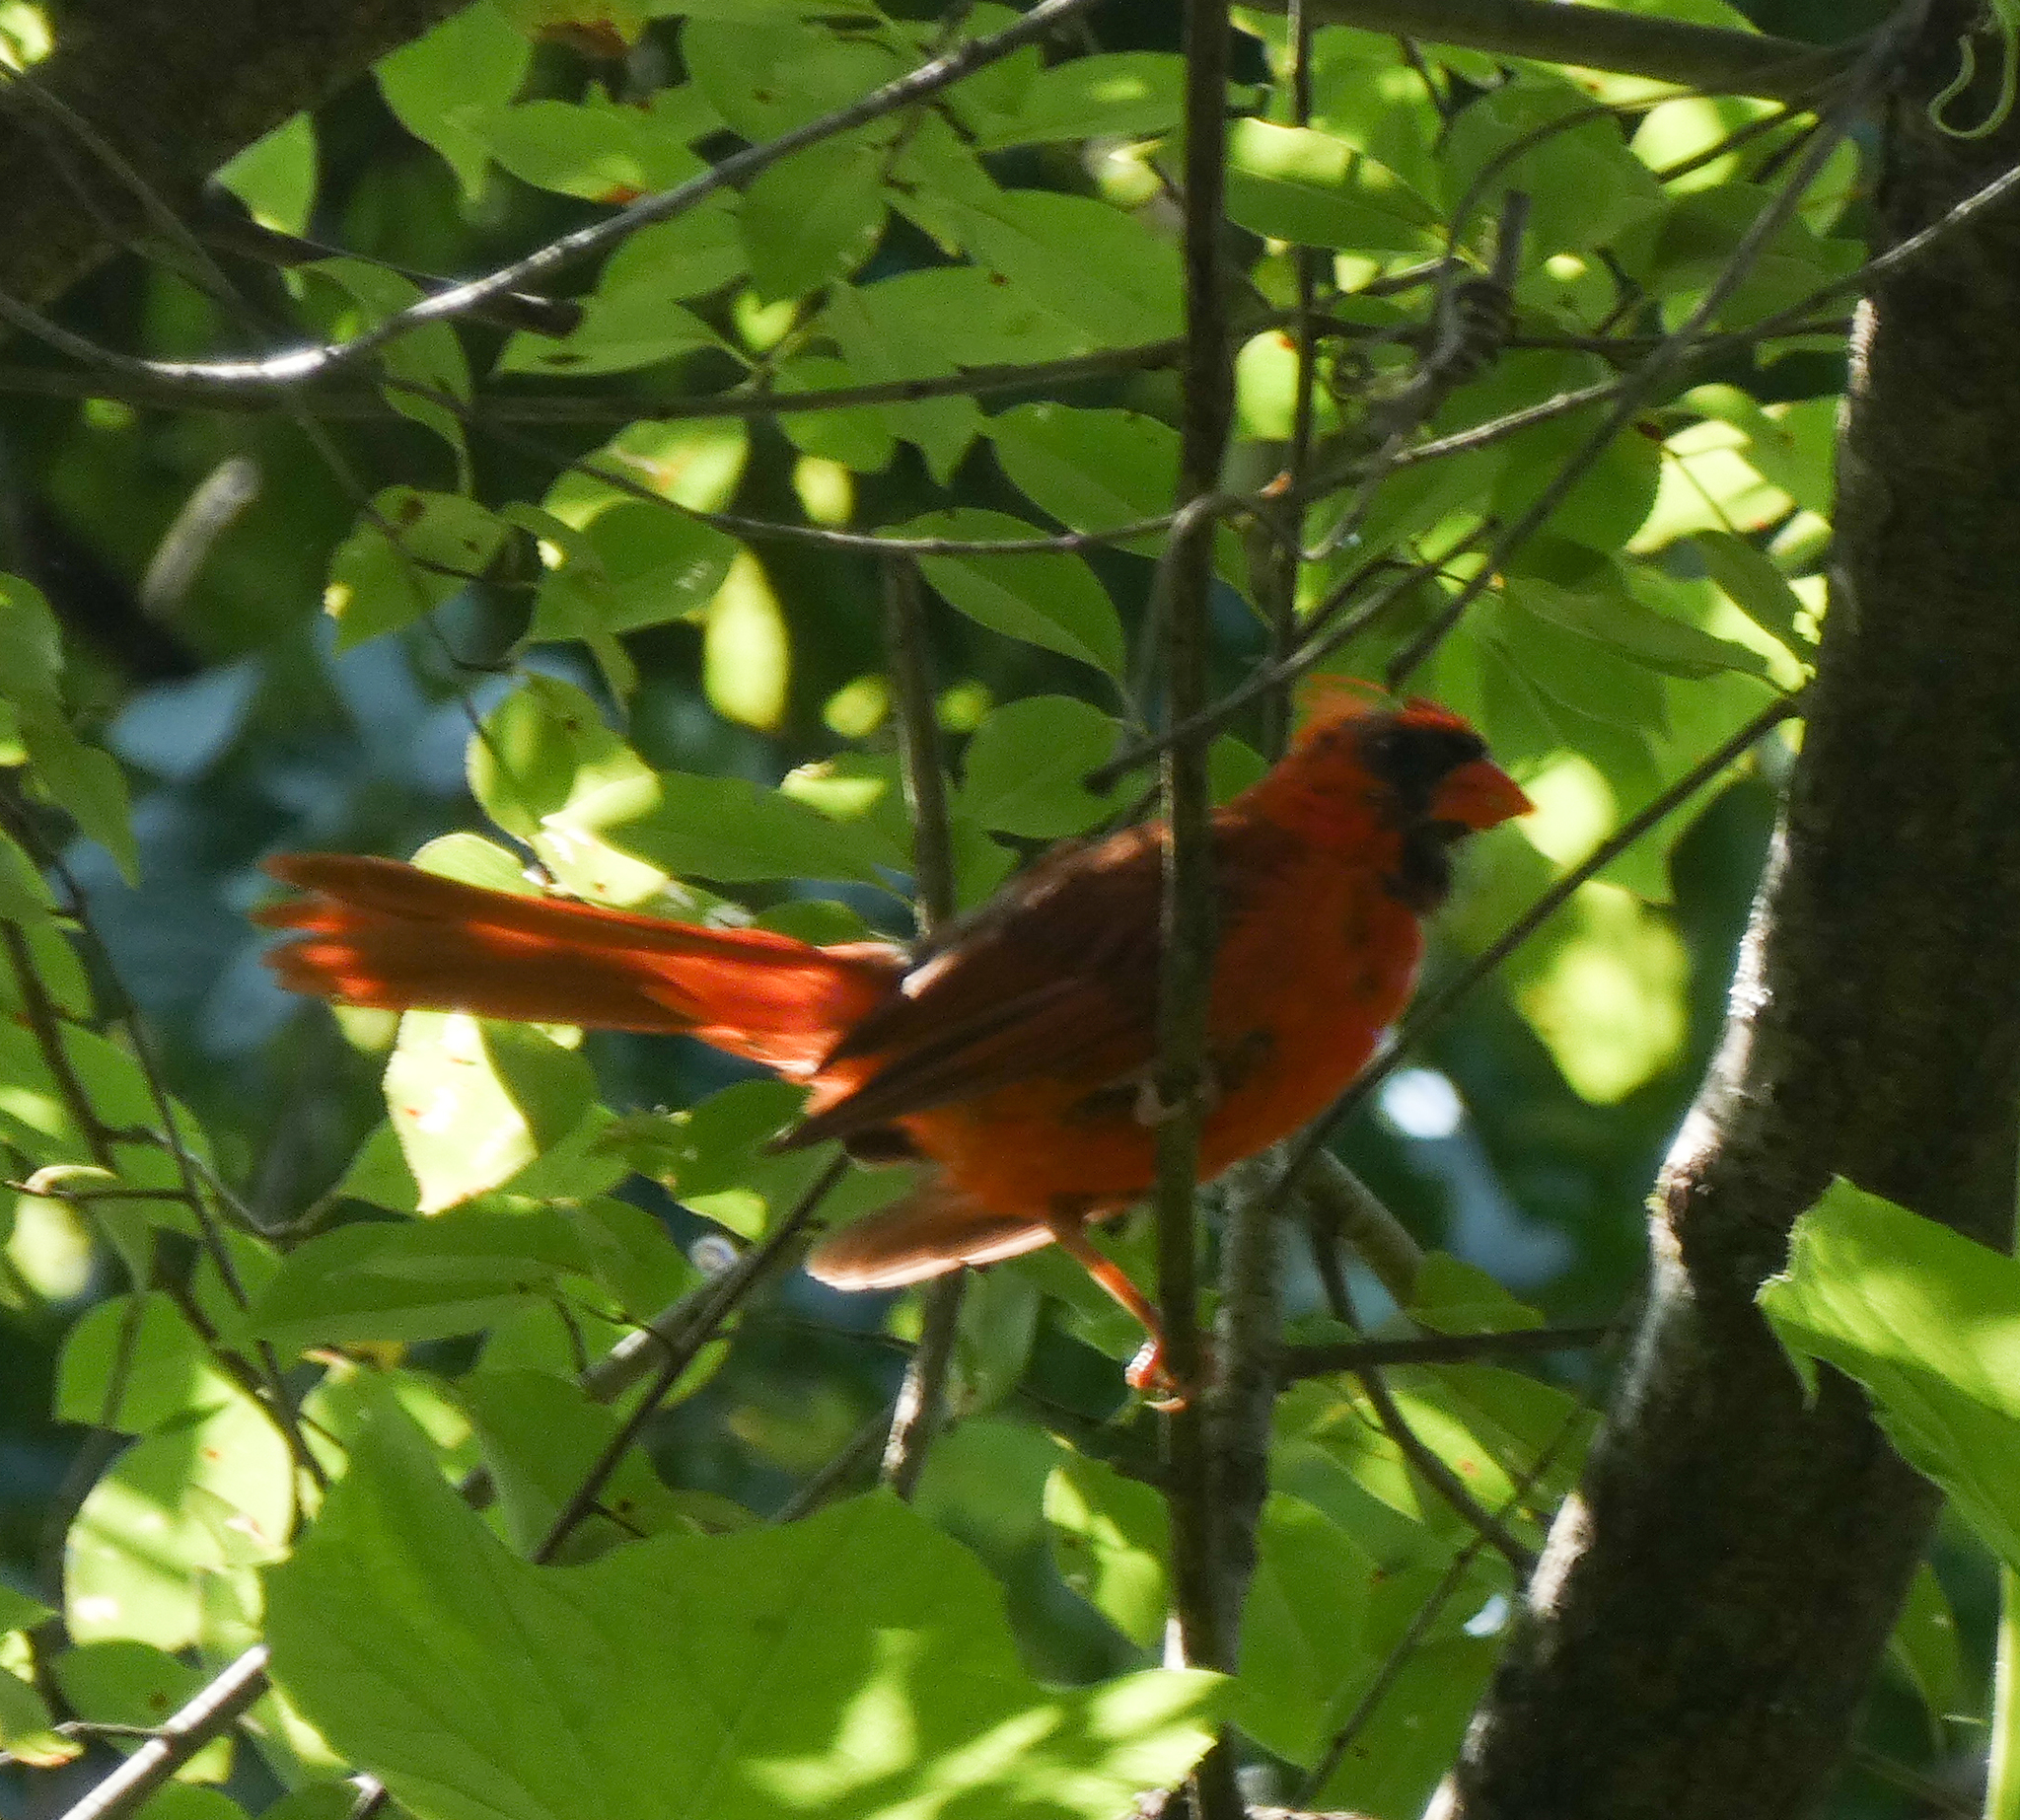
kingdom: Animalia
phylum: Chordata
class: Aves
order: Passeriformes
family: Cardinalidae
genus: Cardinalis
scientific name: Cardinalis cardinalis
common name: Northern cardinal
